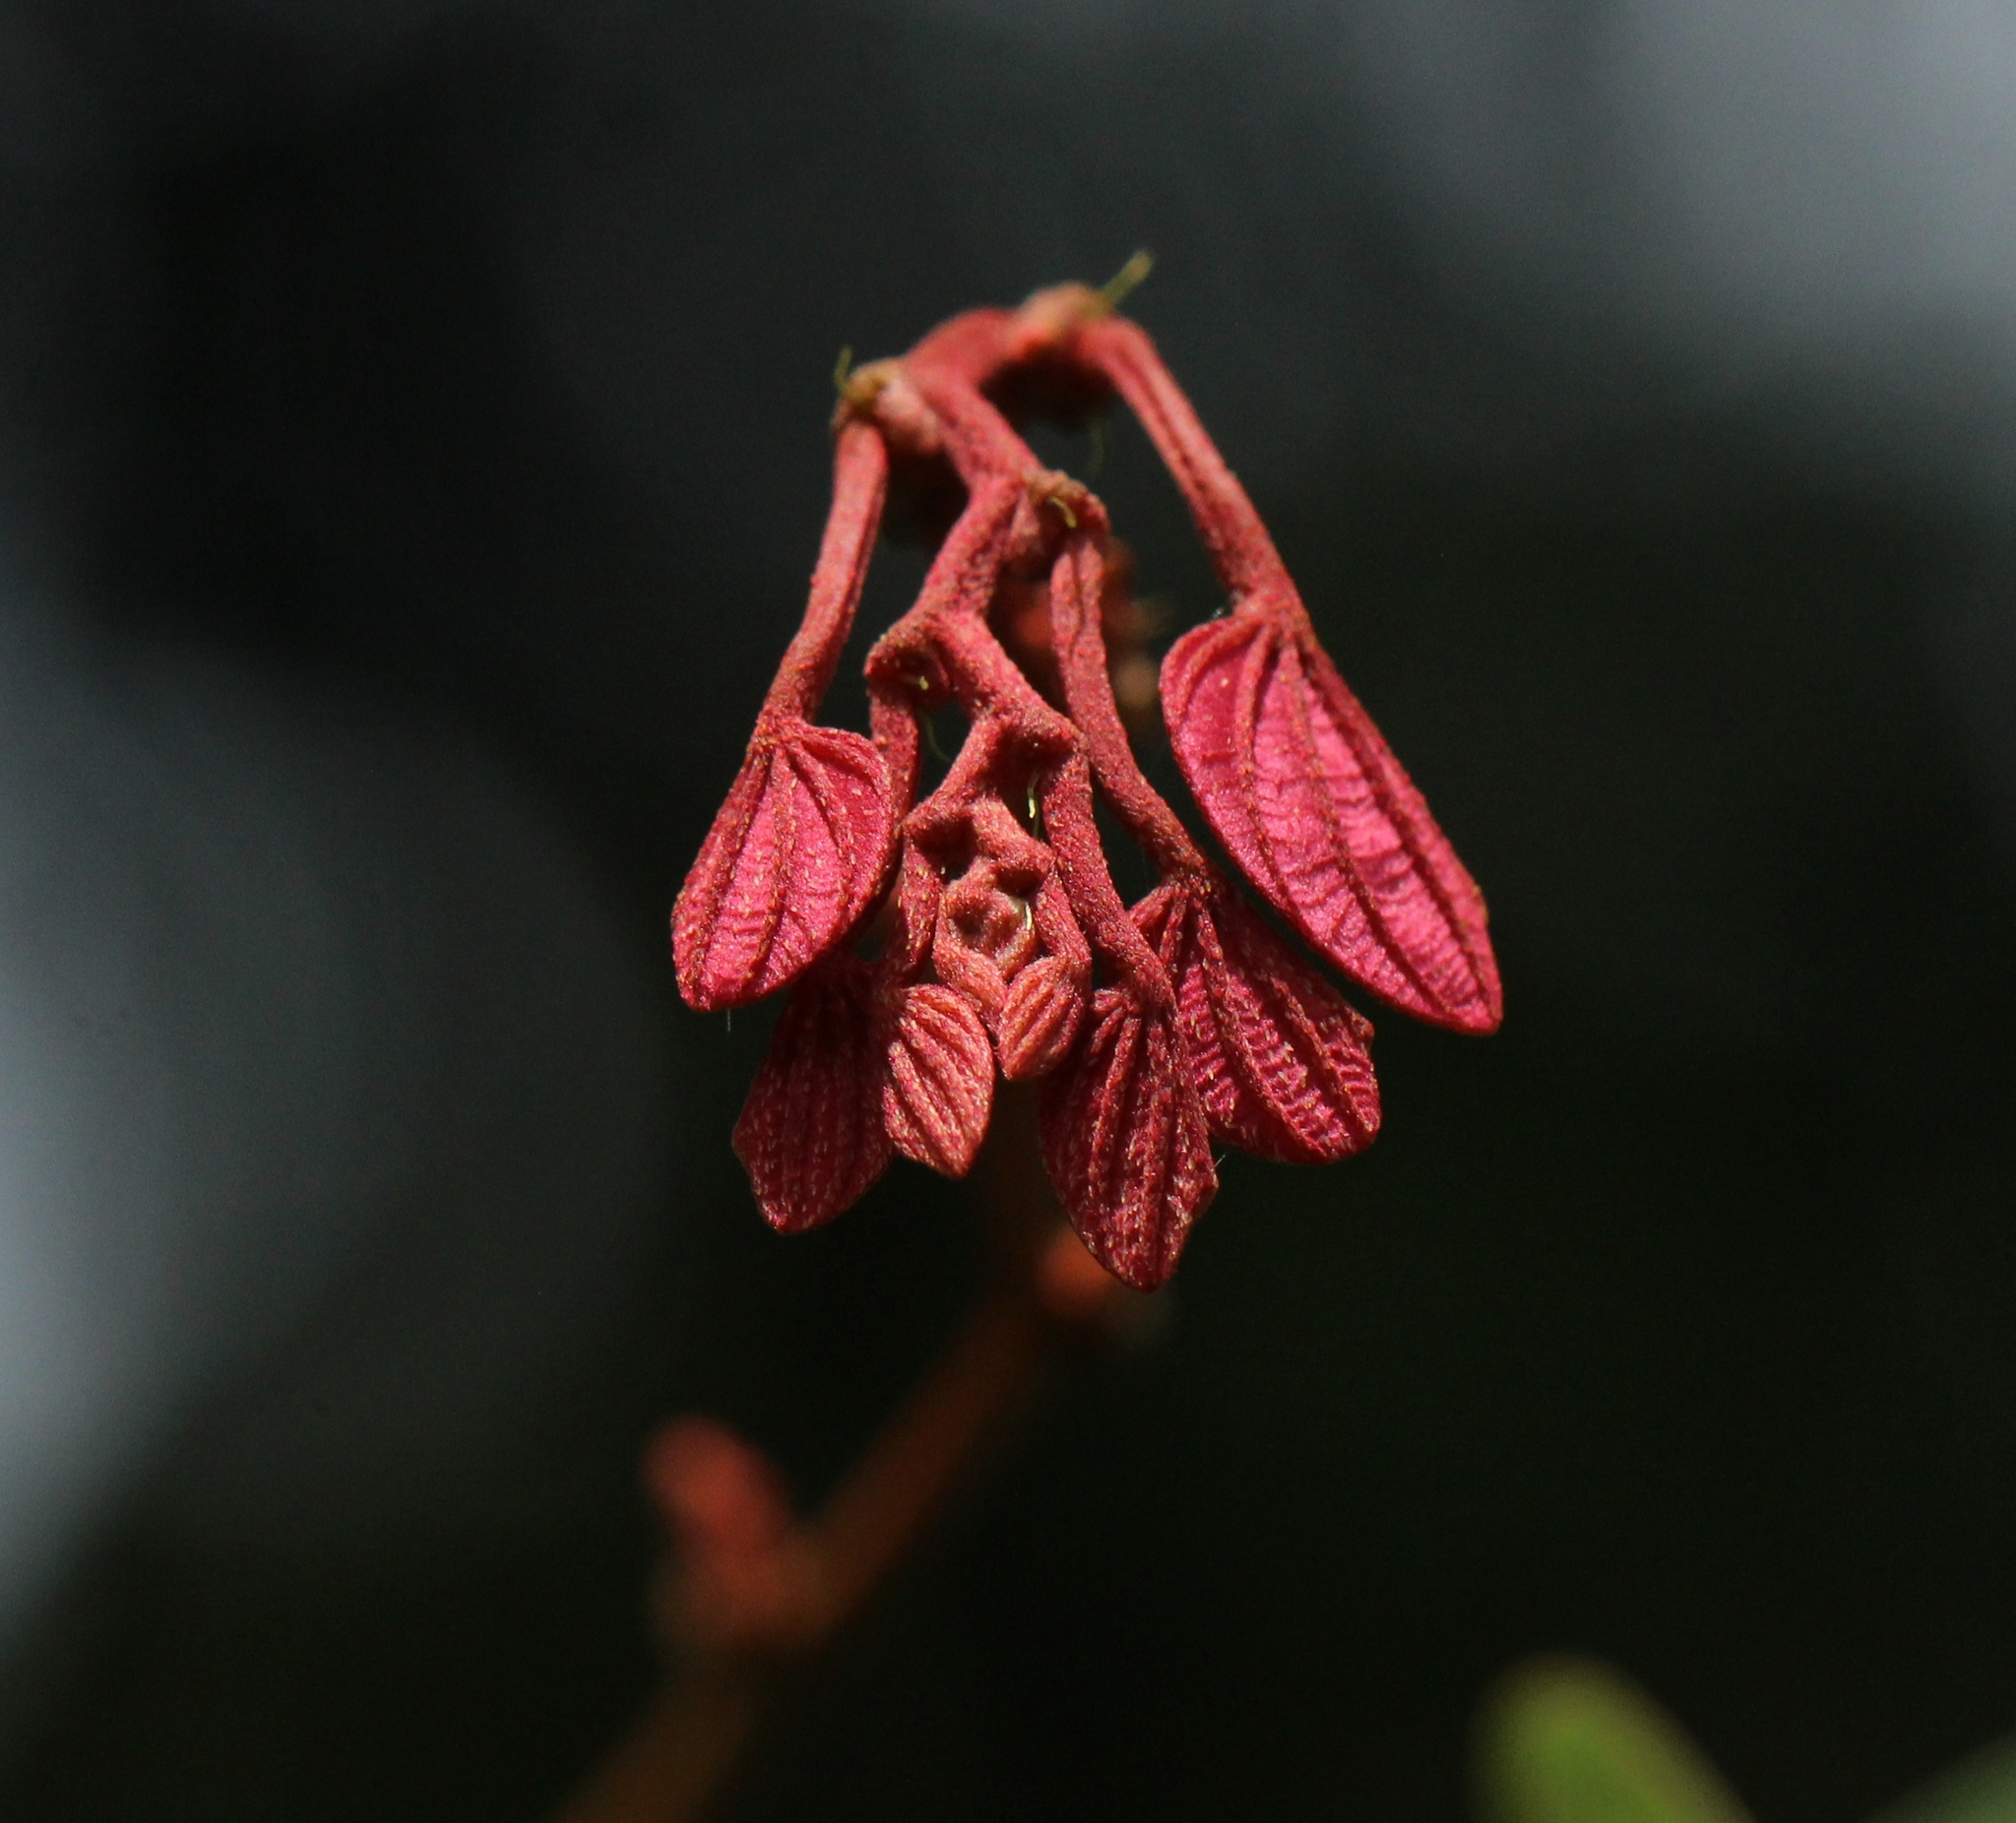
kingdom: Plantae
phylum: Tracheophyta
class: Magnoliopsida
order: Fabales
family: Fabaceae
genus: Bauhinia
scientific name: Bauhinia phoenicea
